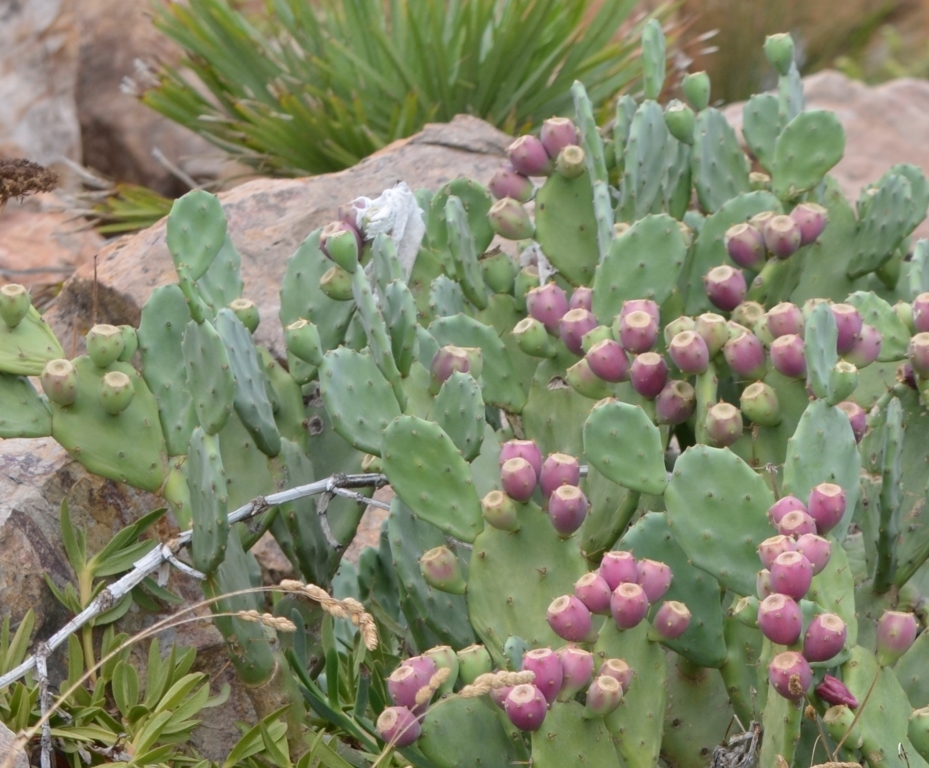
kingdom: Plantae
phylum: Tracheophyta
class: Magnoliopsida
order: Caryophyllales
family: Cactaceae
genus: Opuntia
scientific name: Opuntia stricta
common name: Erect pricklypear
